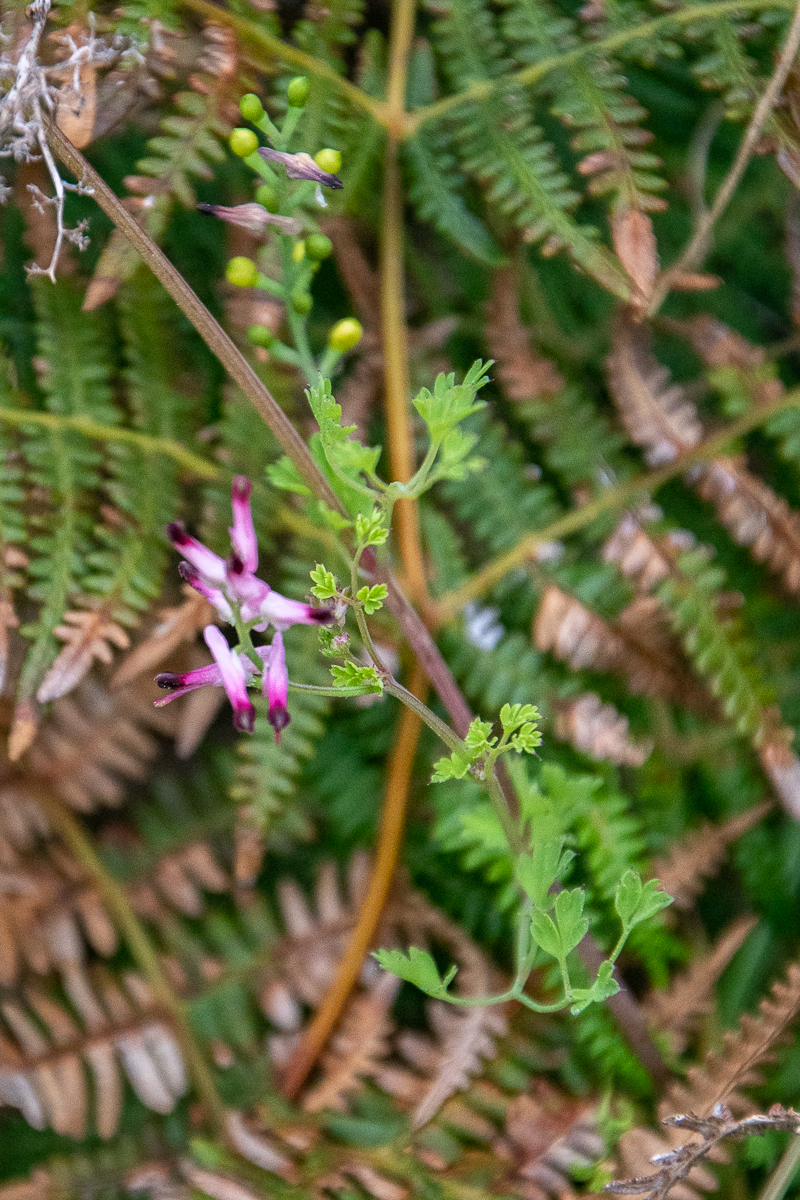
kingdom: Plantae
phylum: Tracheophyta
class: Magnoliopsida
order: Ranunculales
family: Papaveraceae
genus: Fumaria
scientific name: Fumaria muralis
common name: Common ramping-fumitory
